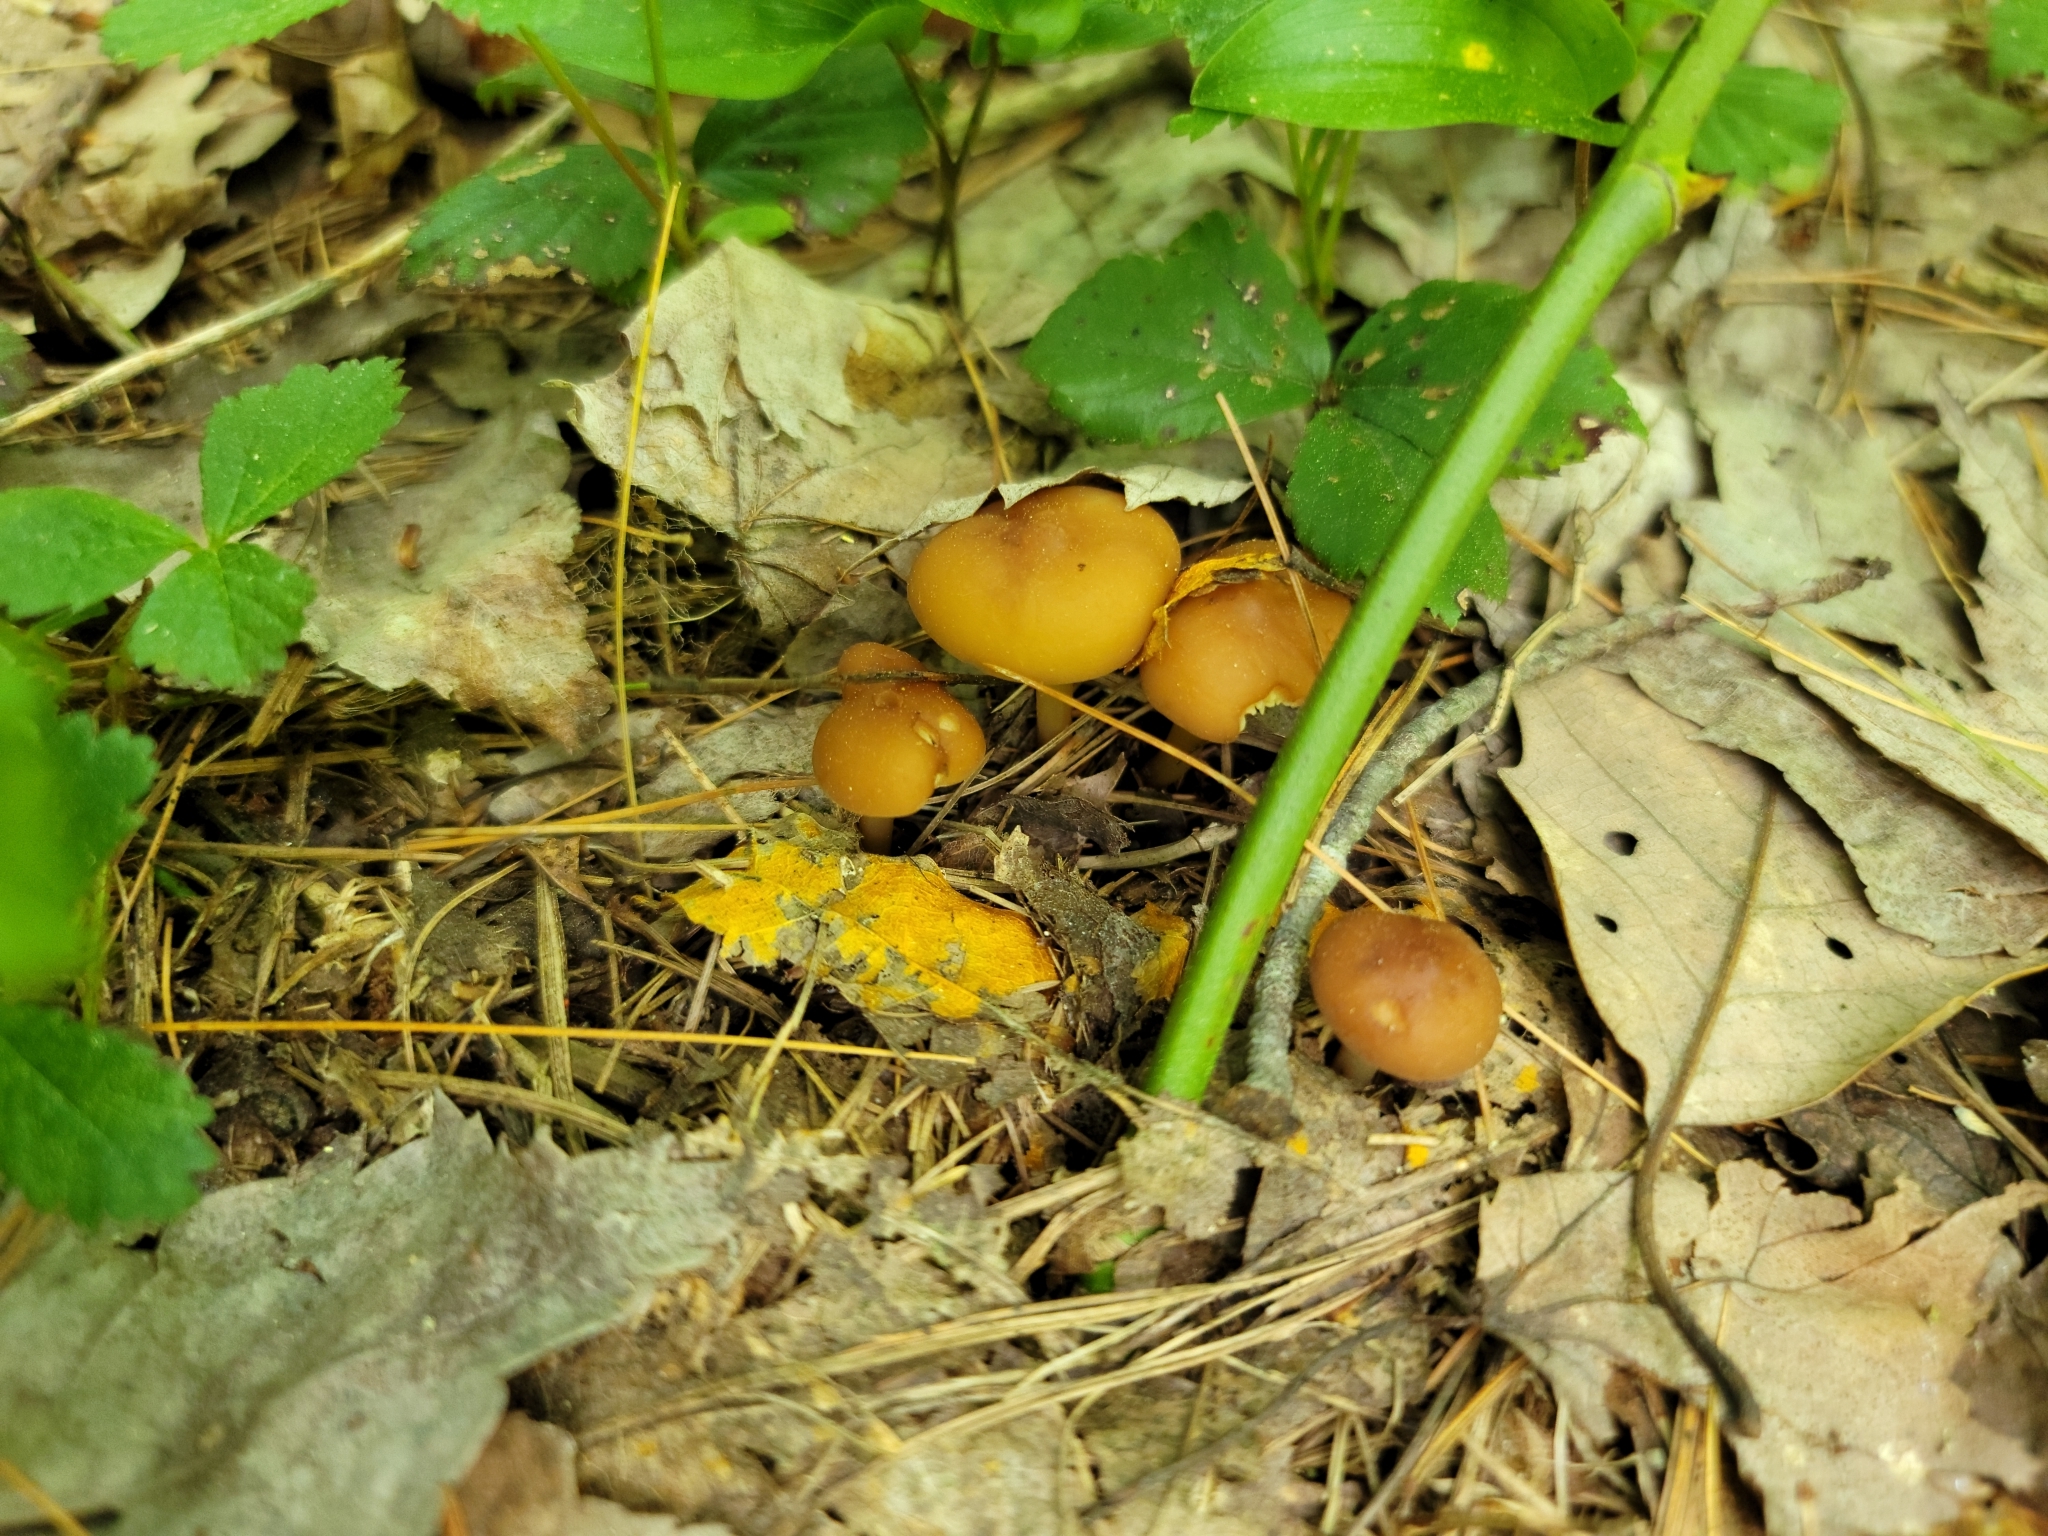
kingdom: Fungi
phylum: Basidiomycota
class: Agaricomycetes
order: Agaricales
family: Omphalotaceae
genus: Gymnopus
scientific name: Gymnopus dryophilus
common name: Penny top
